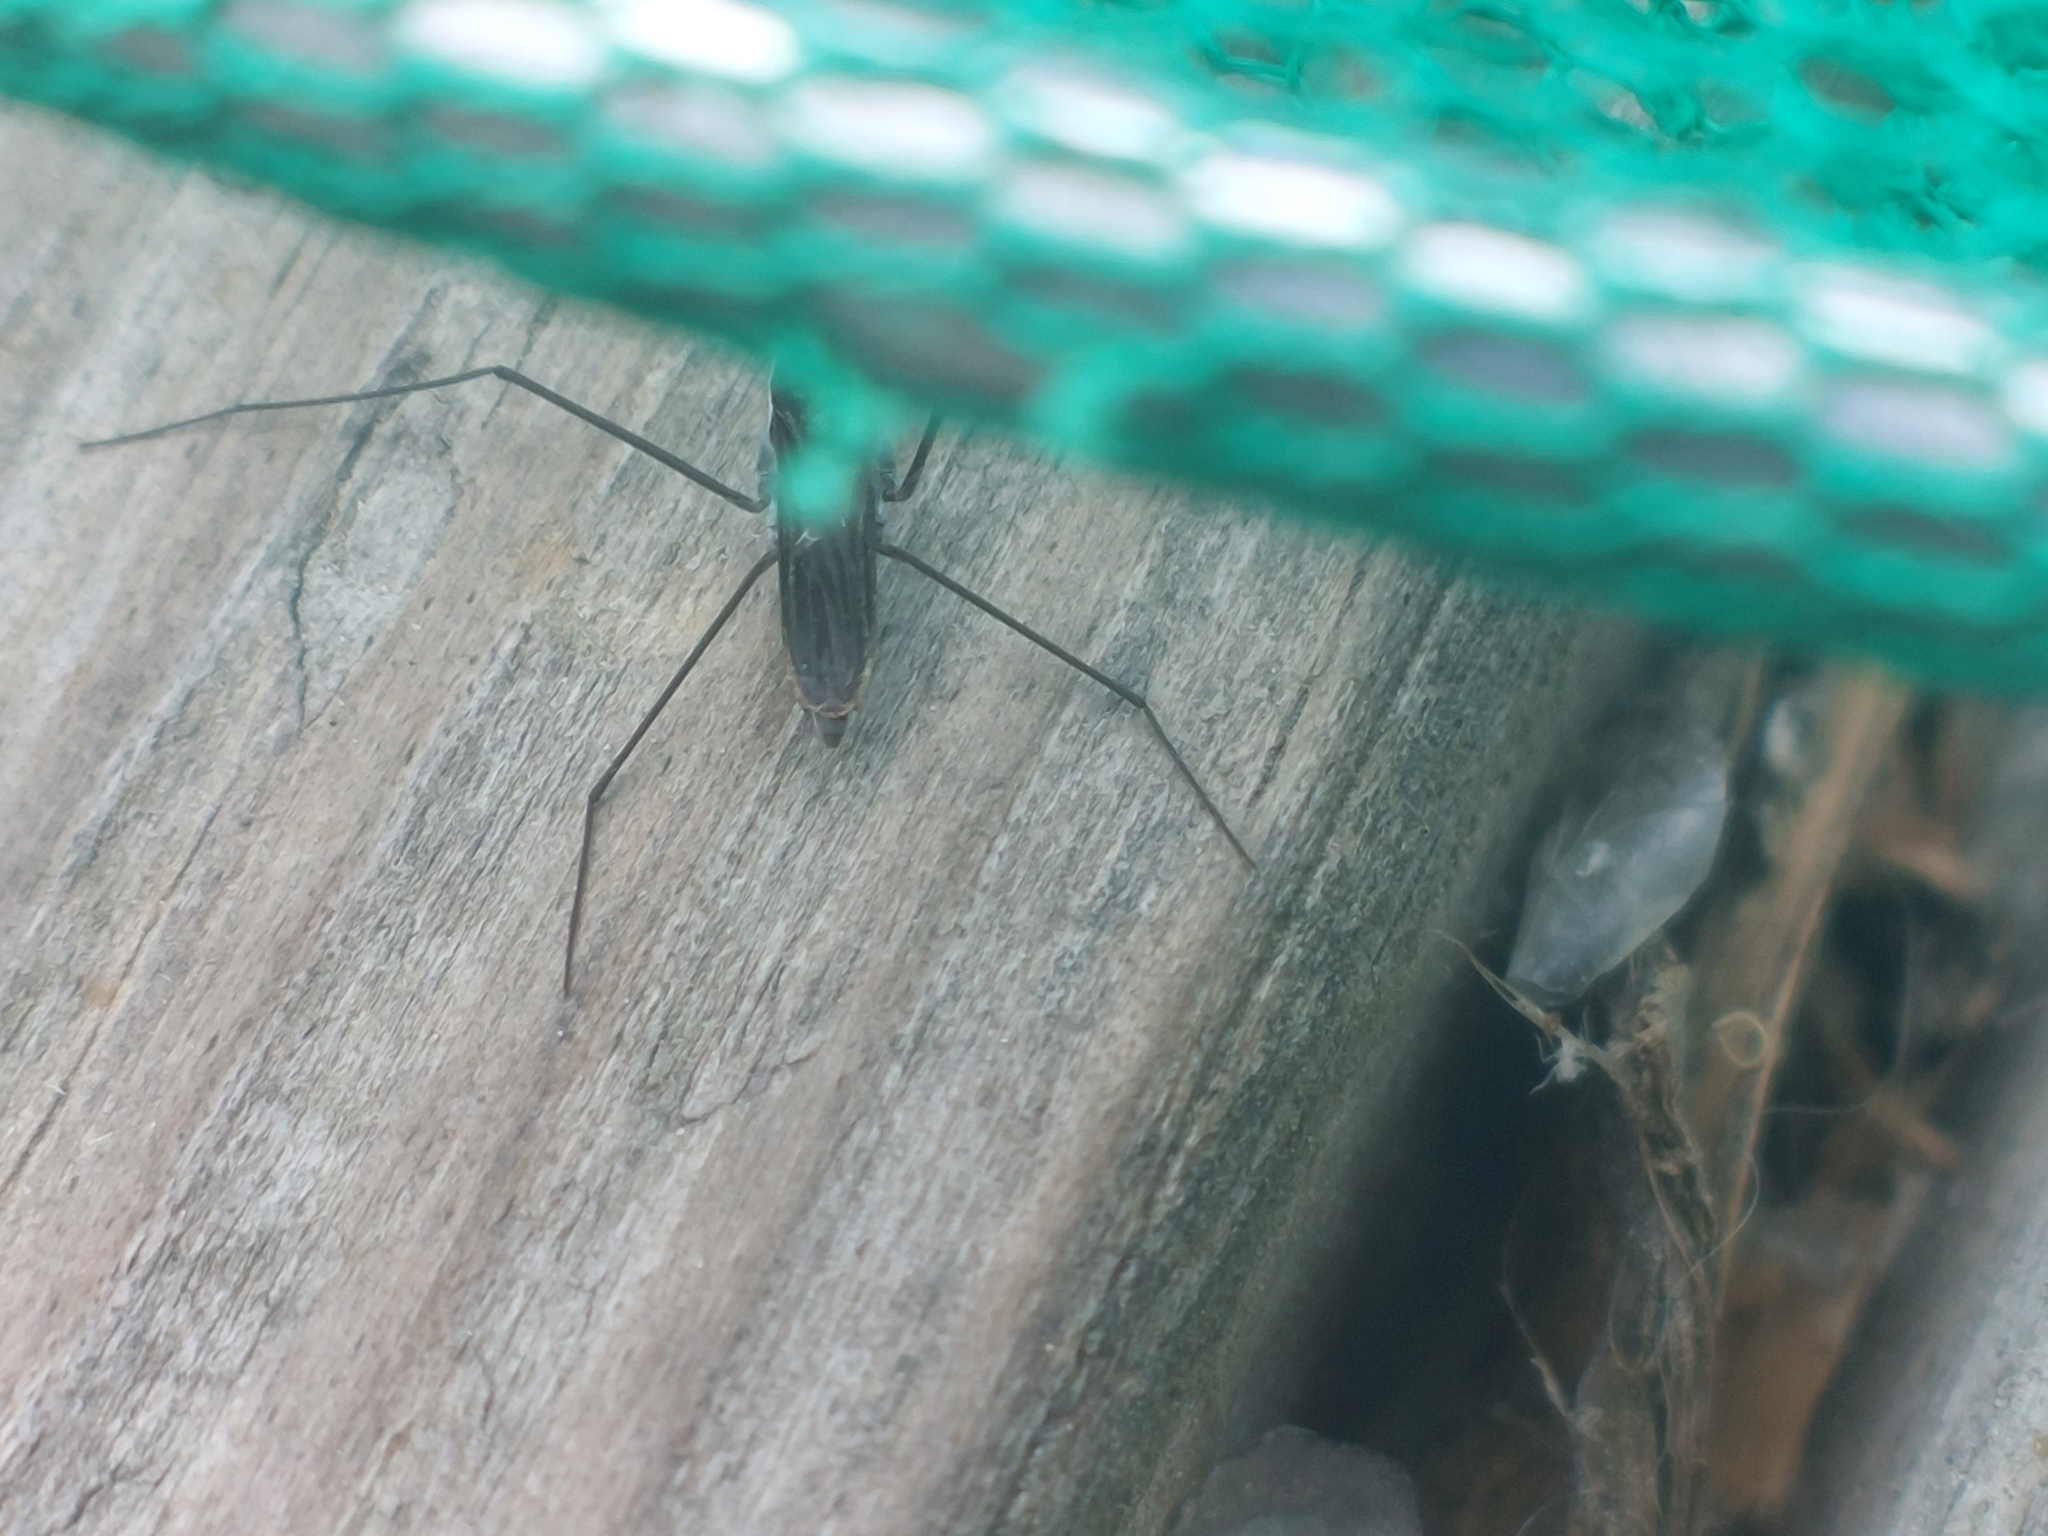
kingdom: Animalia
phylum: Arthropoda
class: Insecta
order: Hemiptera
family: Gerridae
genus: Gerris
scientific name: Gerris
